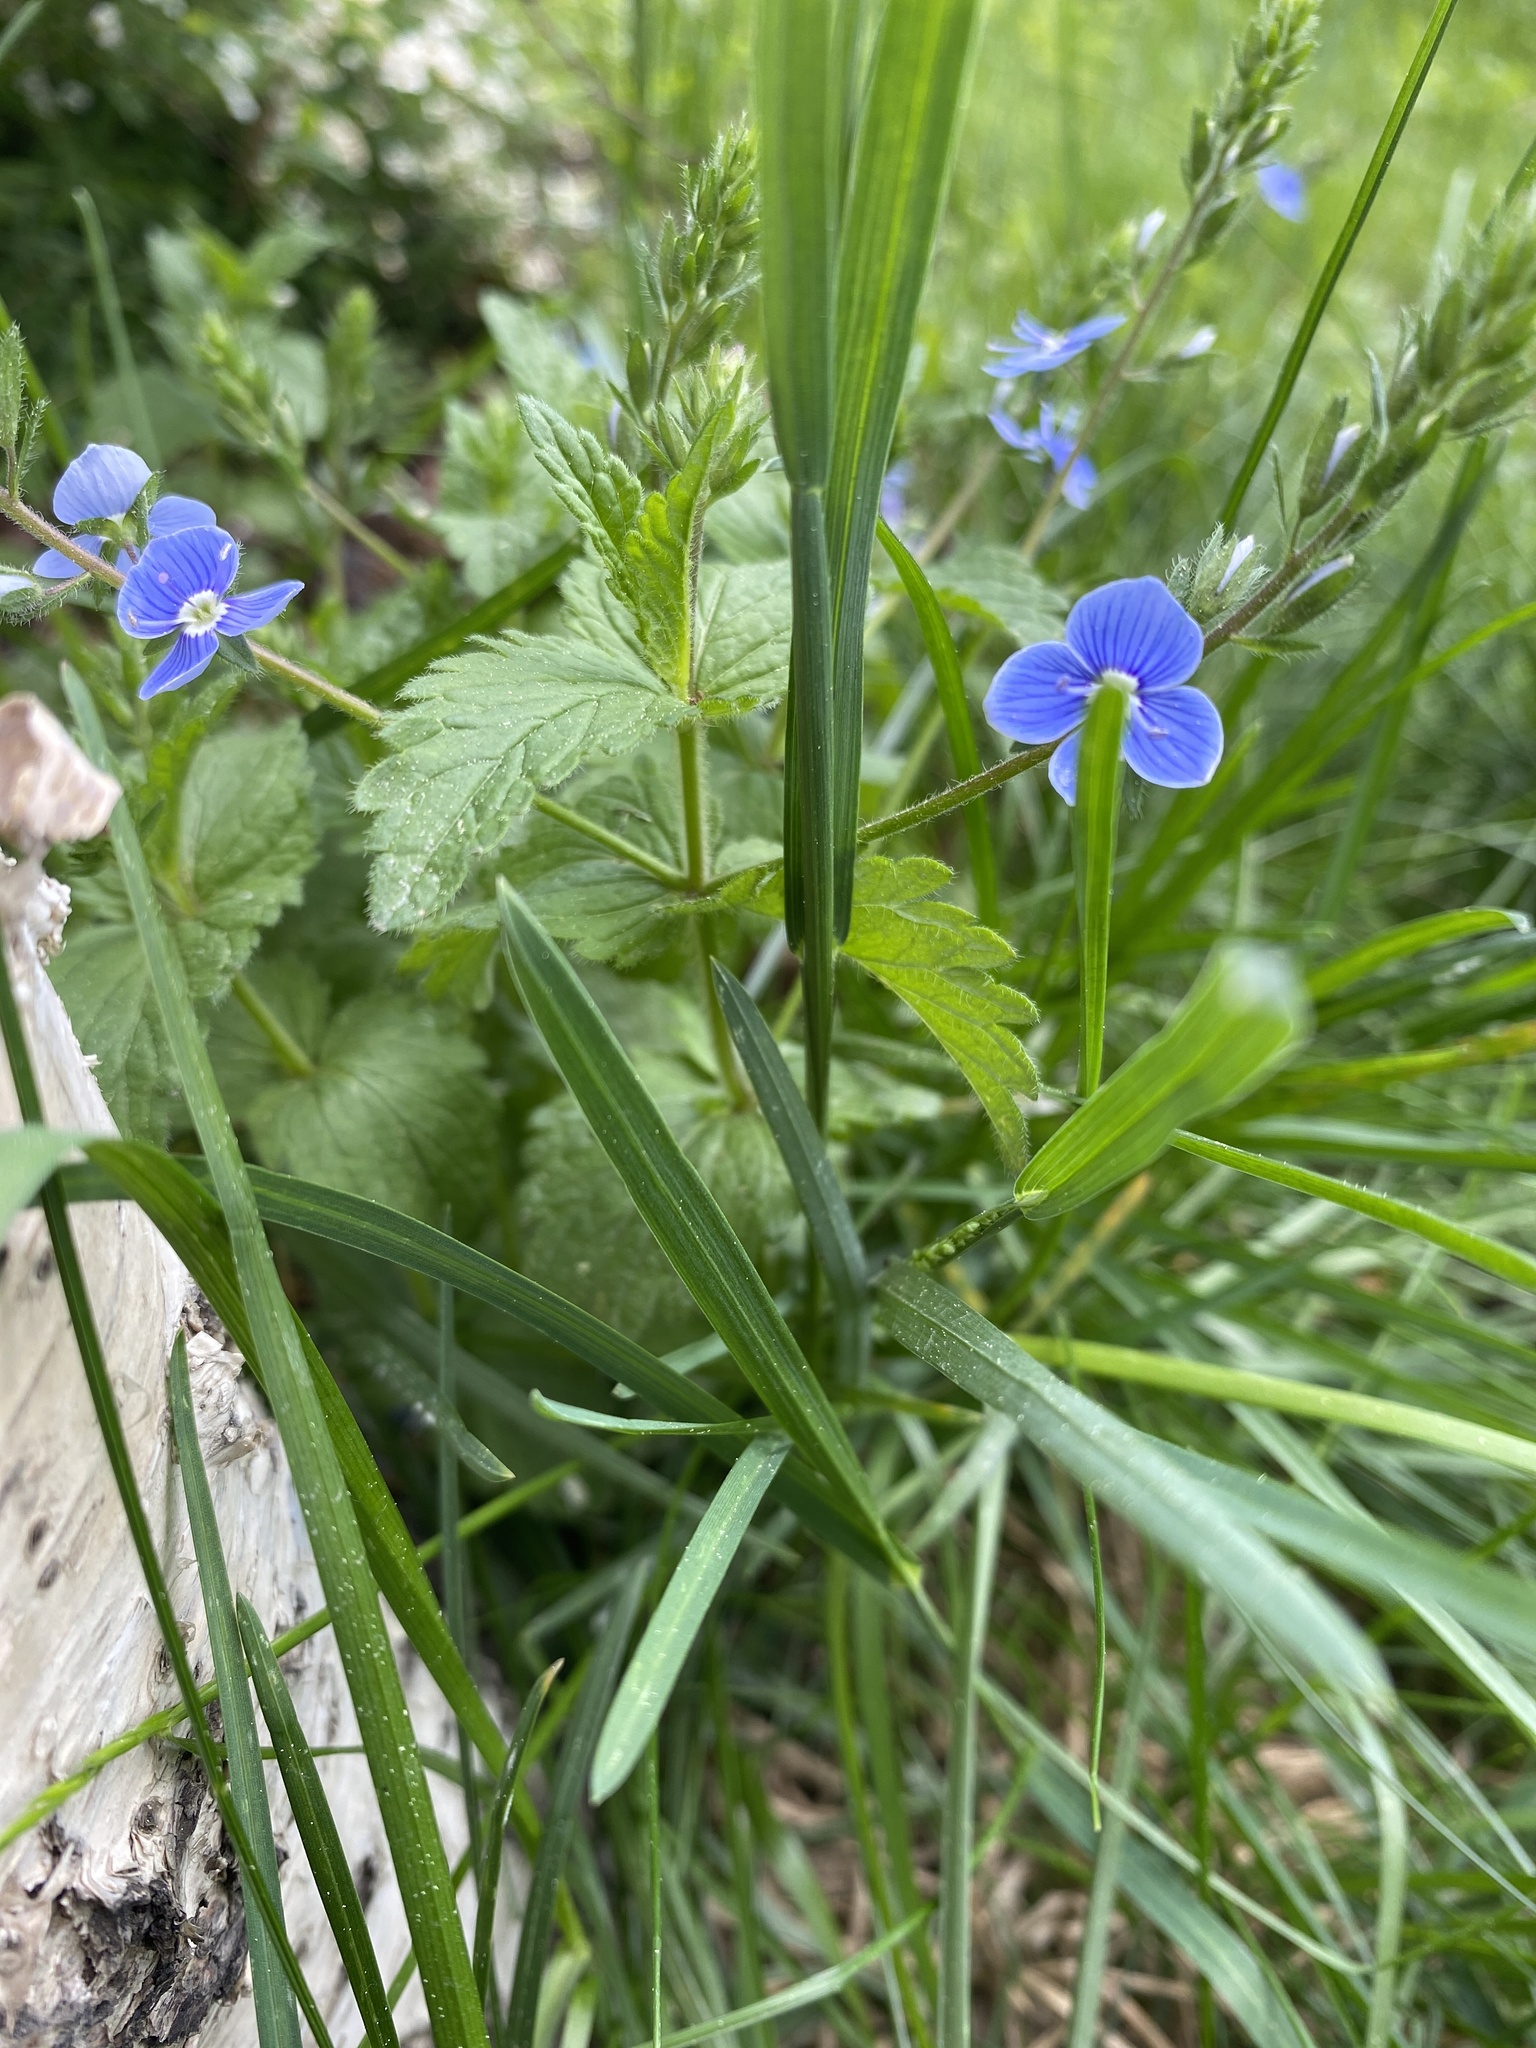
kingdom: Plantae
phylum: Tracheophyta
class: Magnoliopsida
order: Lamiales
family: Plantaginaceae
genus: Veronica
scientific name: Veronica chamaedrys
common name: Germander speedwell
